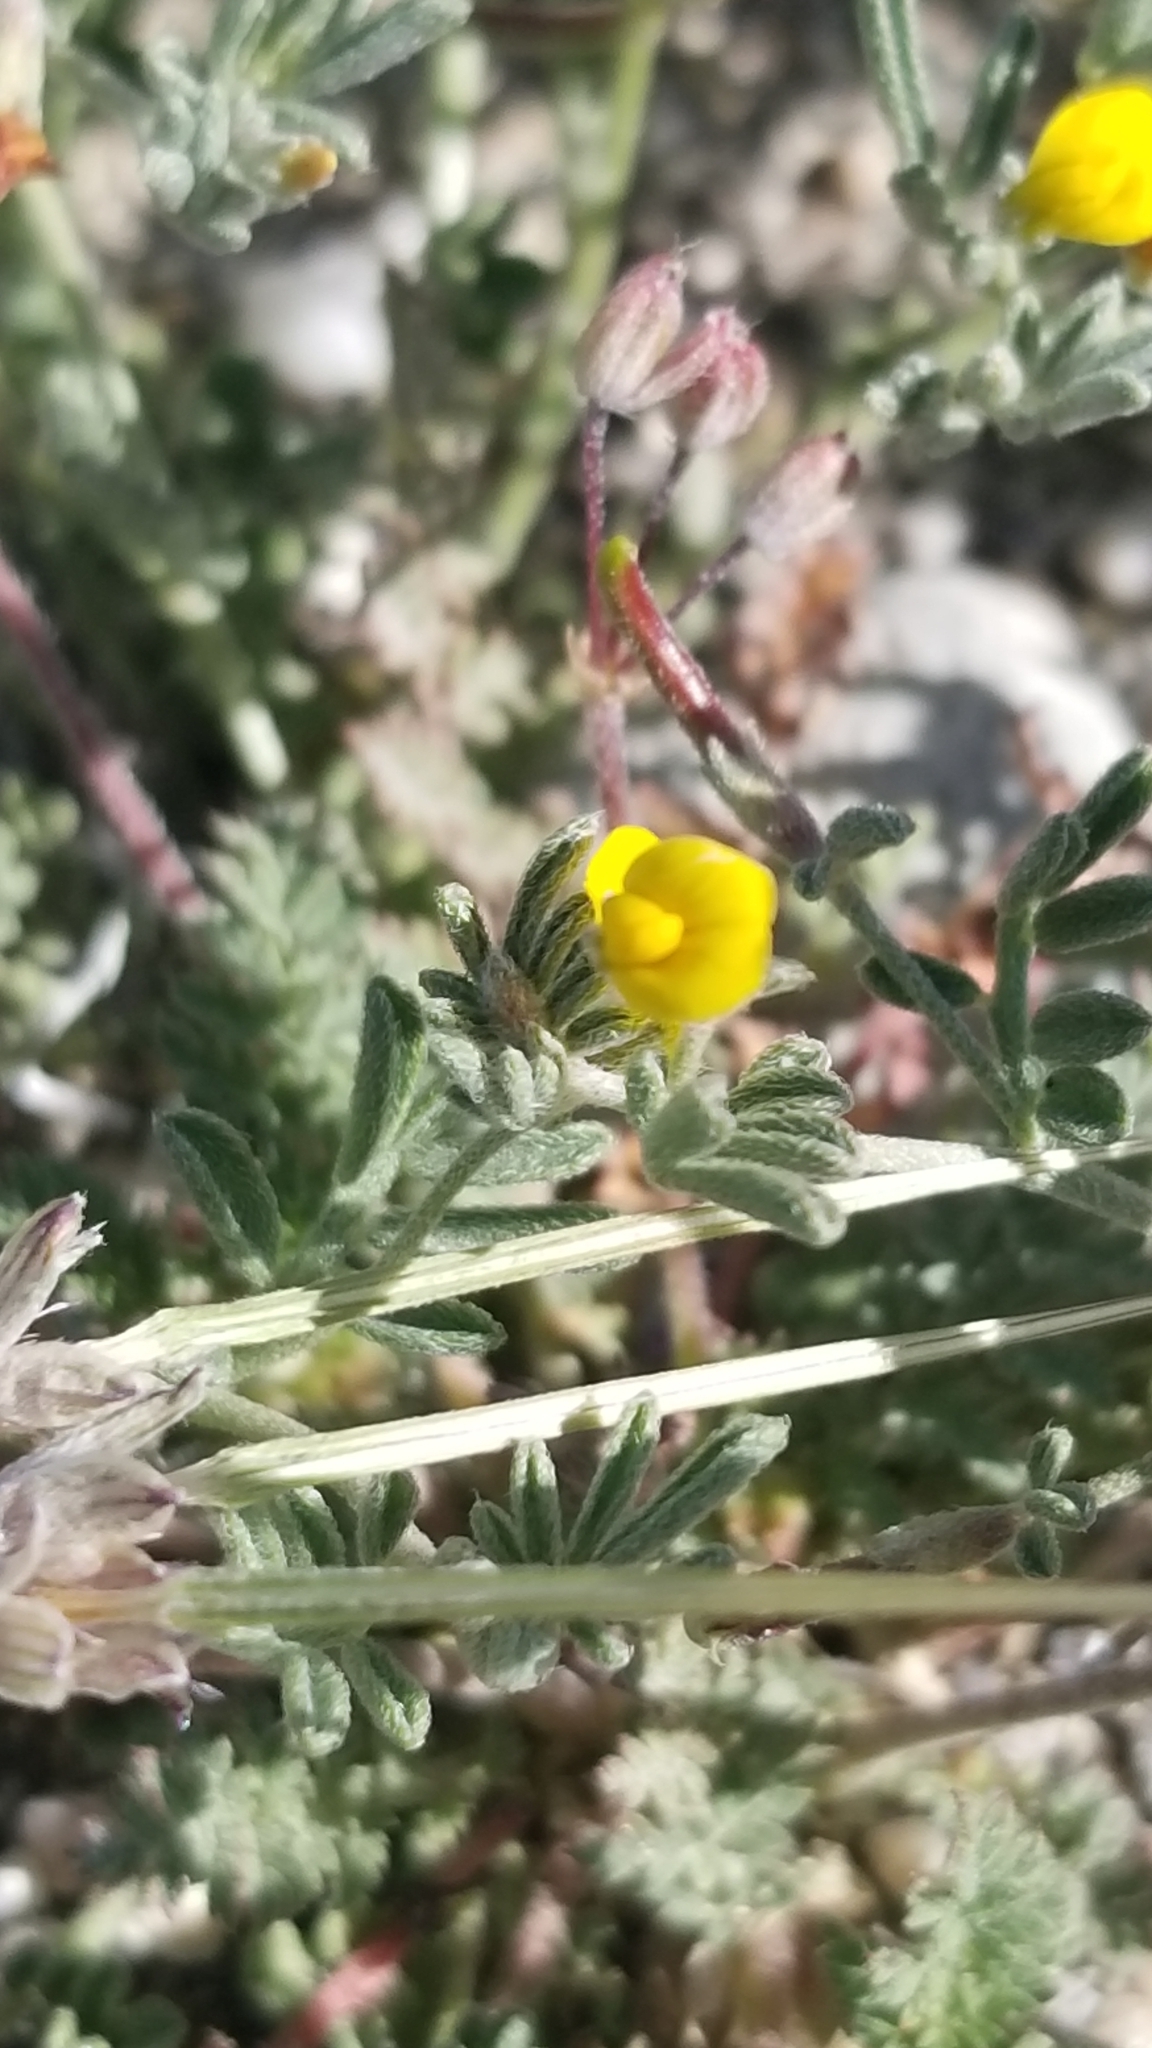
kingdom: Plantae
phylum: Tracheophyta
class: Magnoliopsida
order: Fabales
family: Fabaceae
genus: Acmispon
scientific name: Acmispon strigosus
